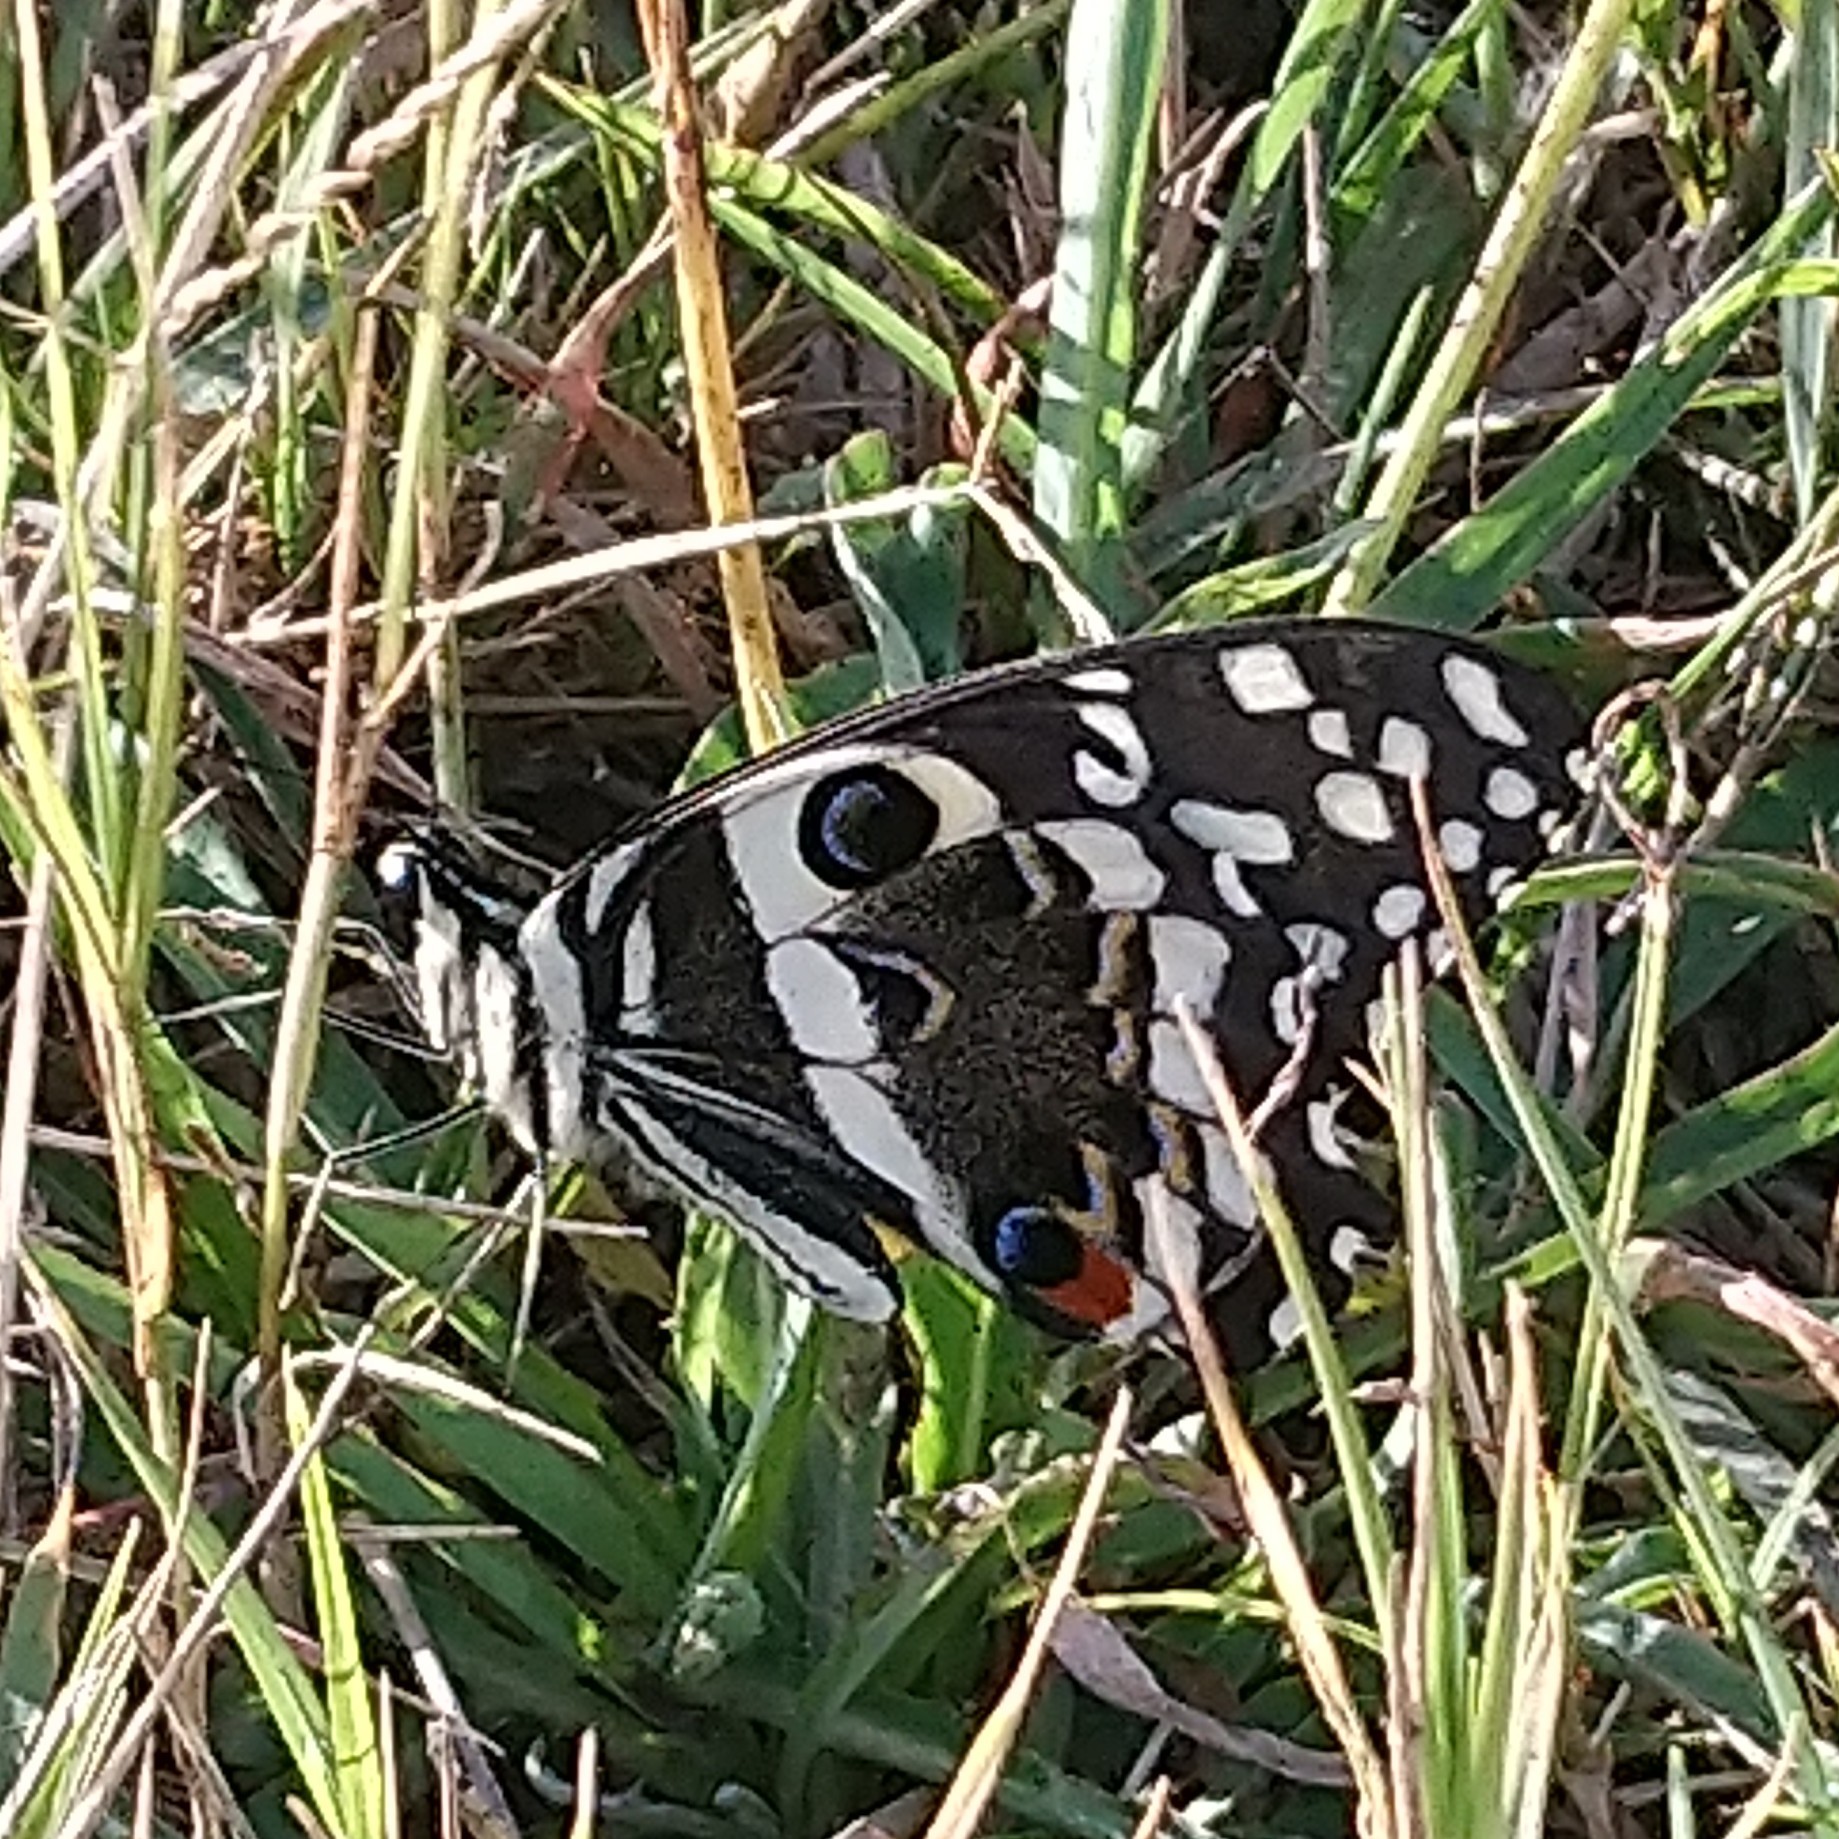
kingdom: Animalia
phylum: Arthropoda
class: Insecta
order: Lepidoptera
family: Papilionidae
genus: Papilio
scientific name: Papilio demodocus
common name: Christmas butterfly
